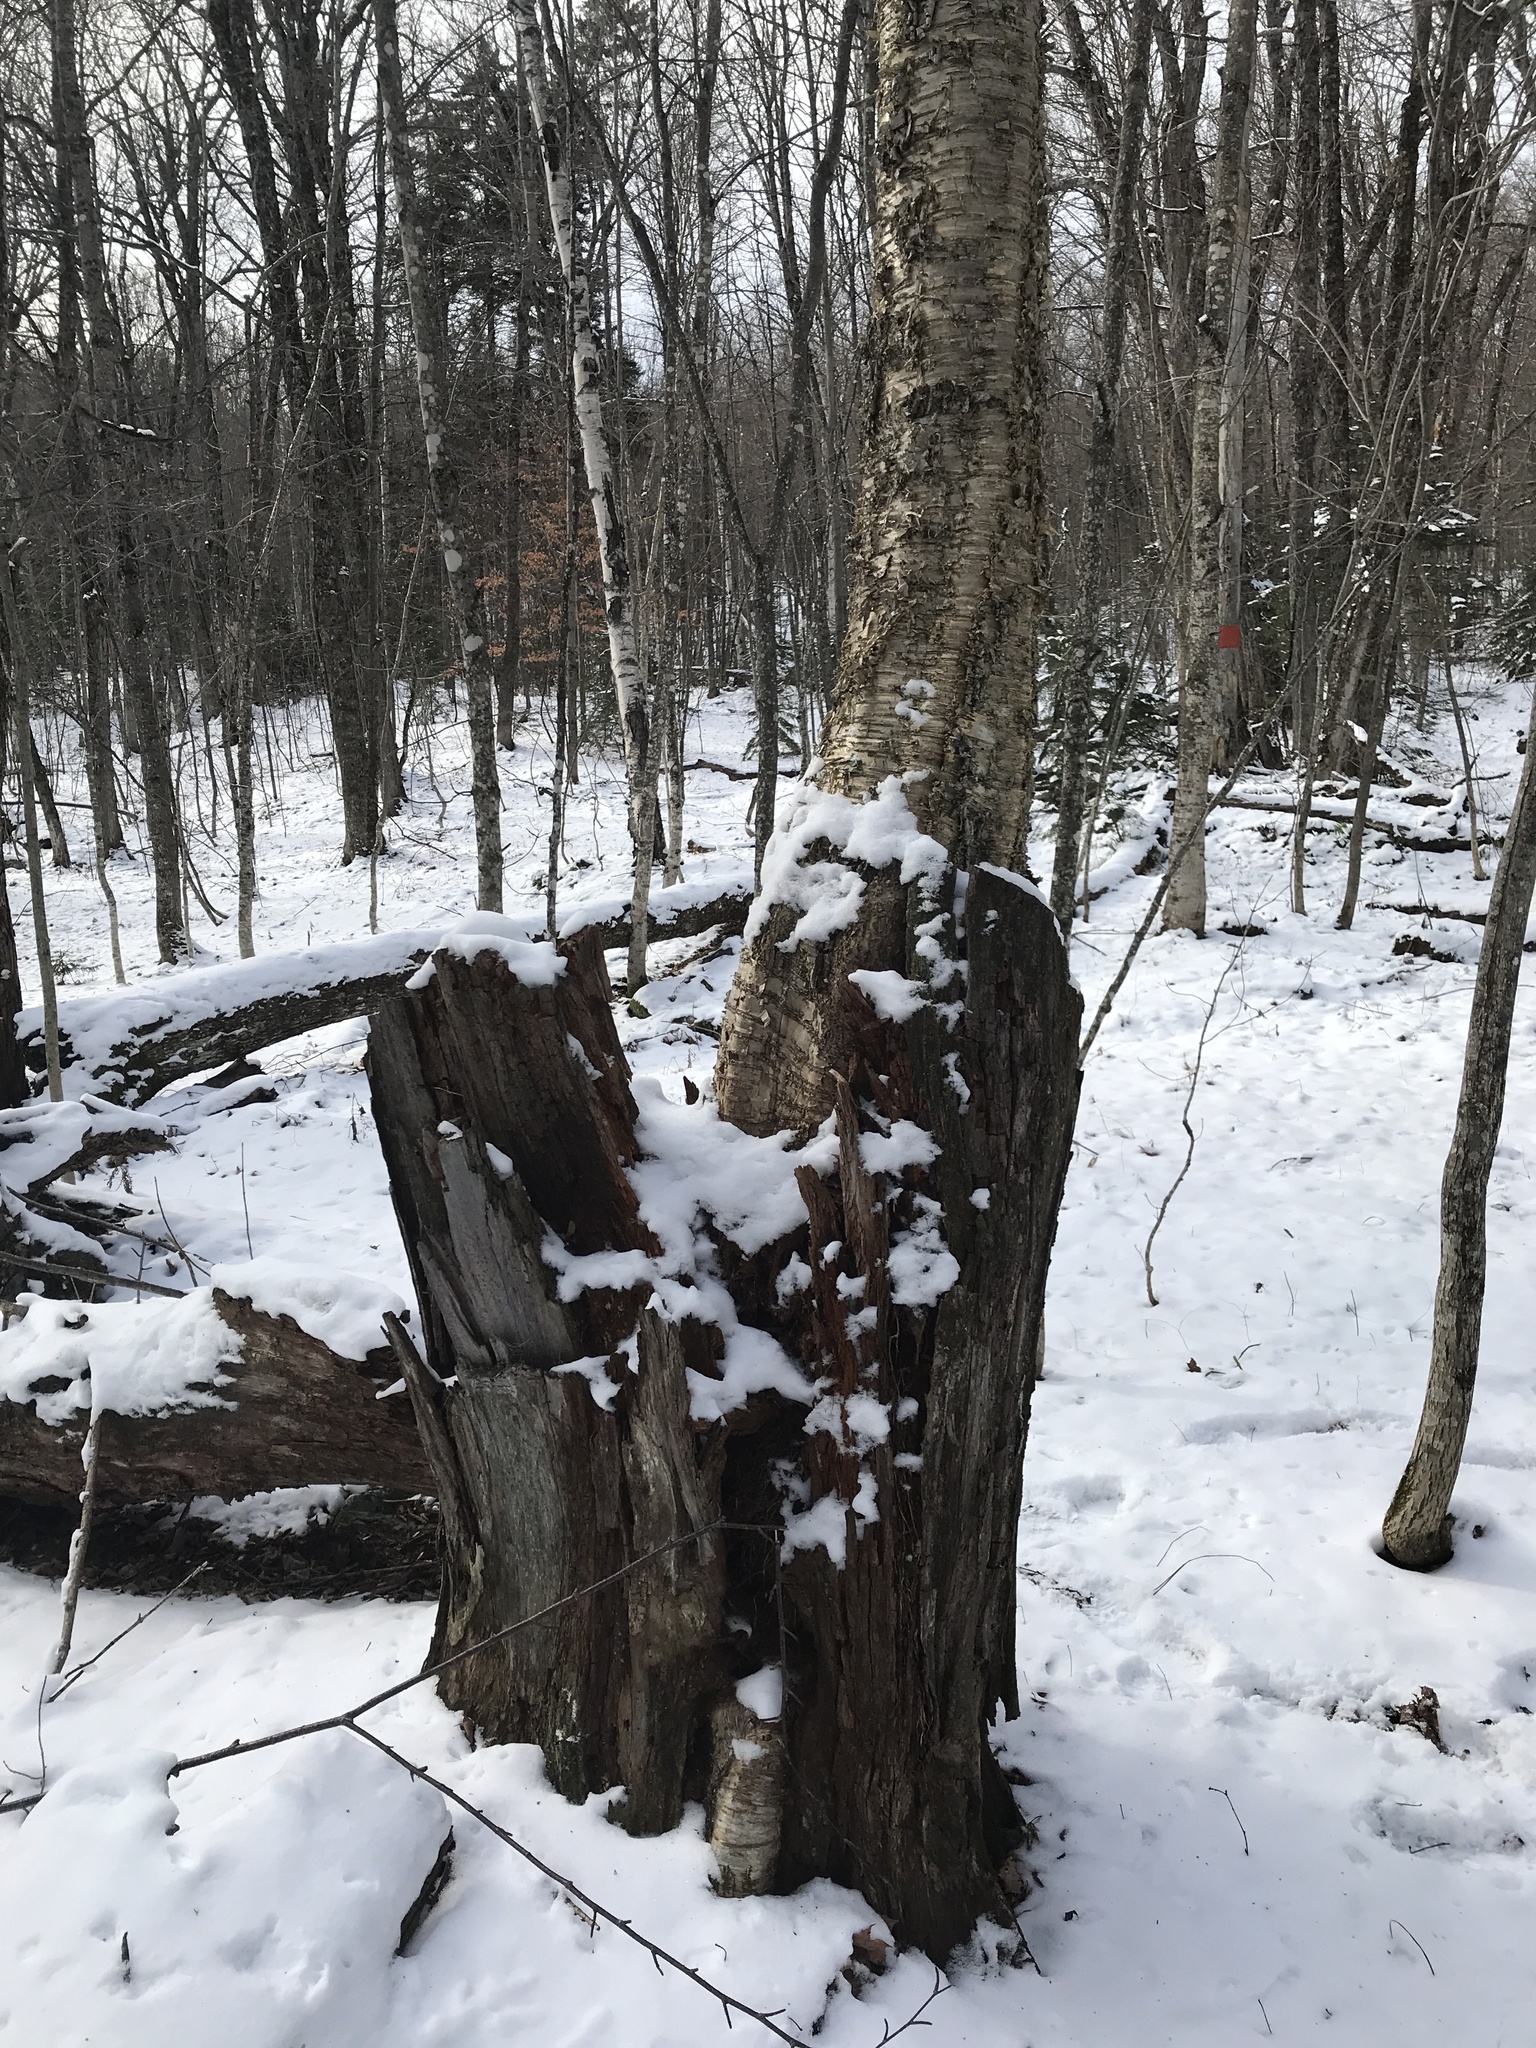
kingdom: Plantae
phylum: Tracheophyta
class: Magnoliopsida
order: Fagales
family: Betulaceae
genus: Betula
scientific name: Betula alleghaniensis
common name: Yellow birch
